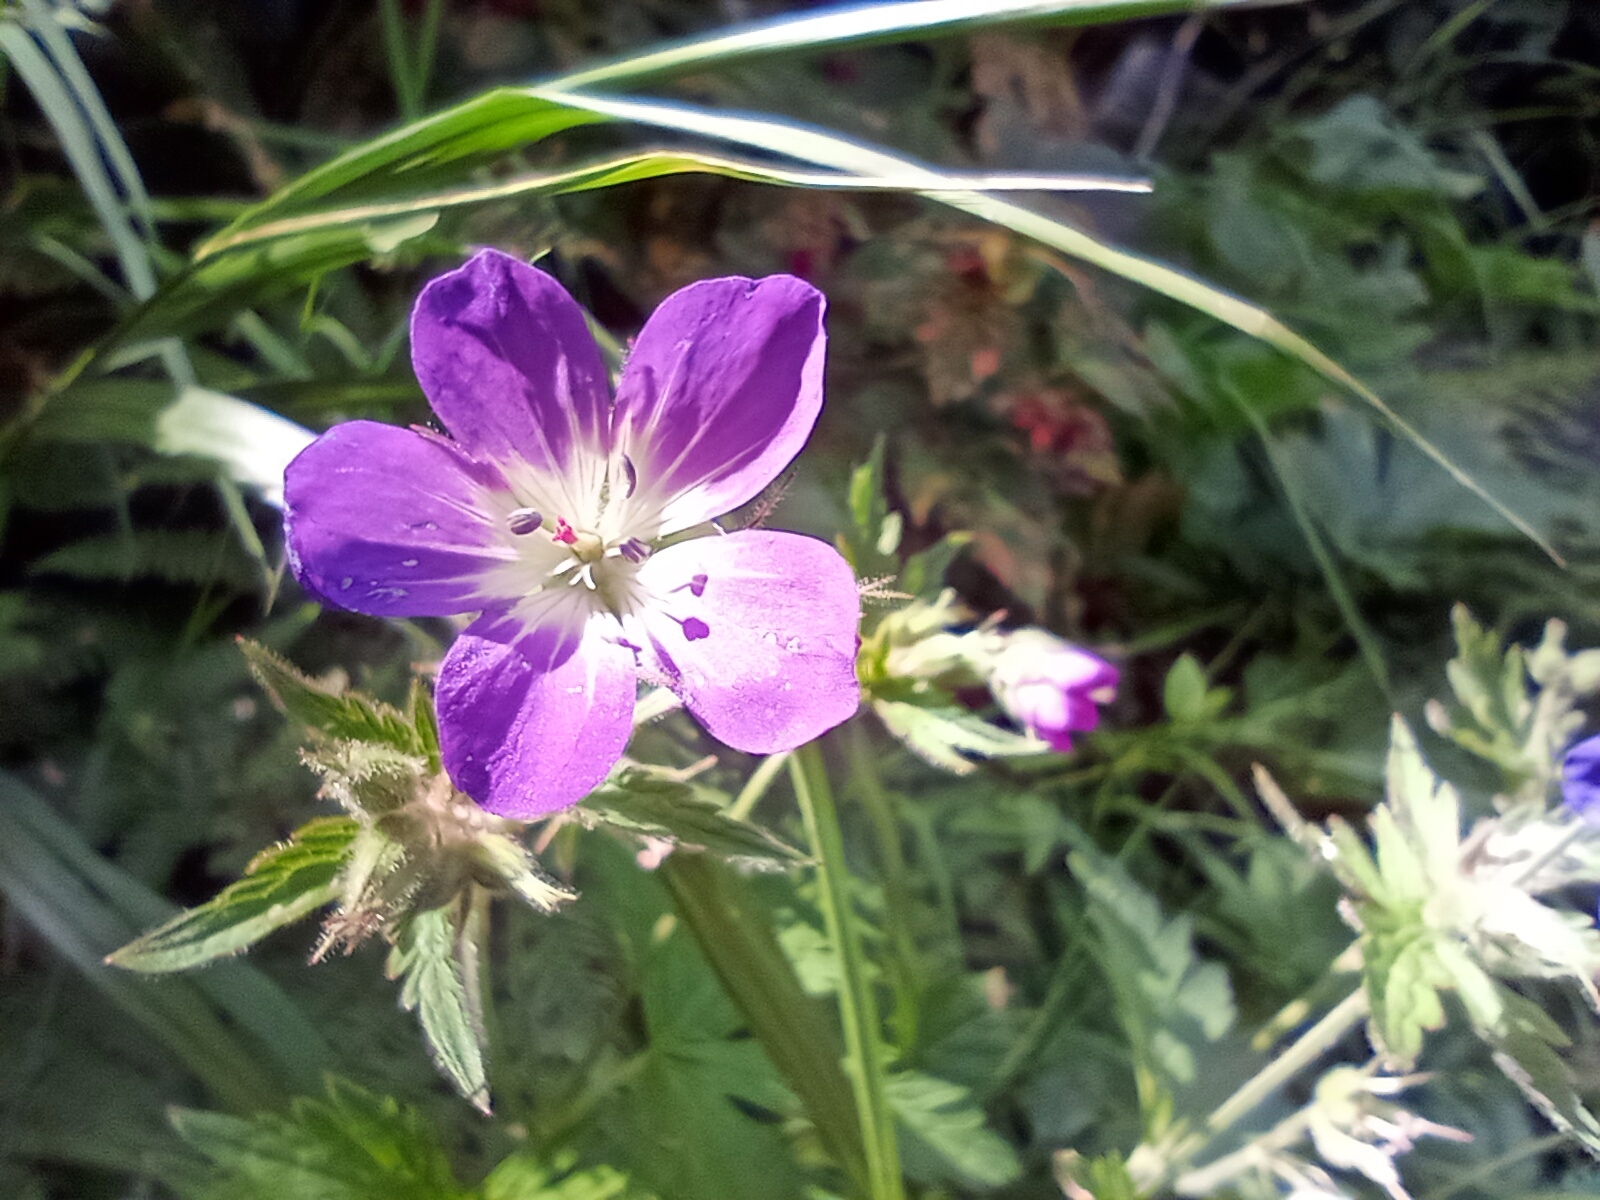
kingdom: Plantae
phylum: Tracheophyta
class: Magnoliopsida
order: Geraniales
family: Geraniaceae
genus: Geranium
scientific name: Geranium sylvaticum
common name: Wood crane's-bill
